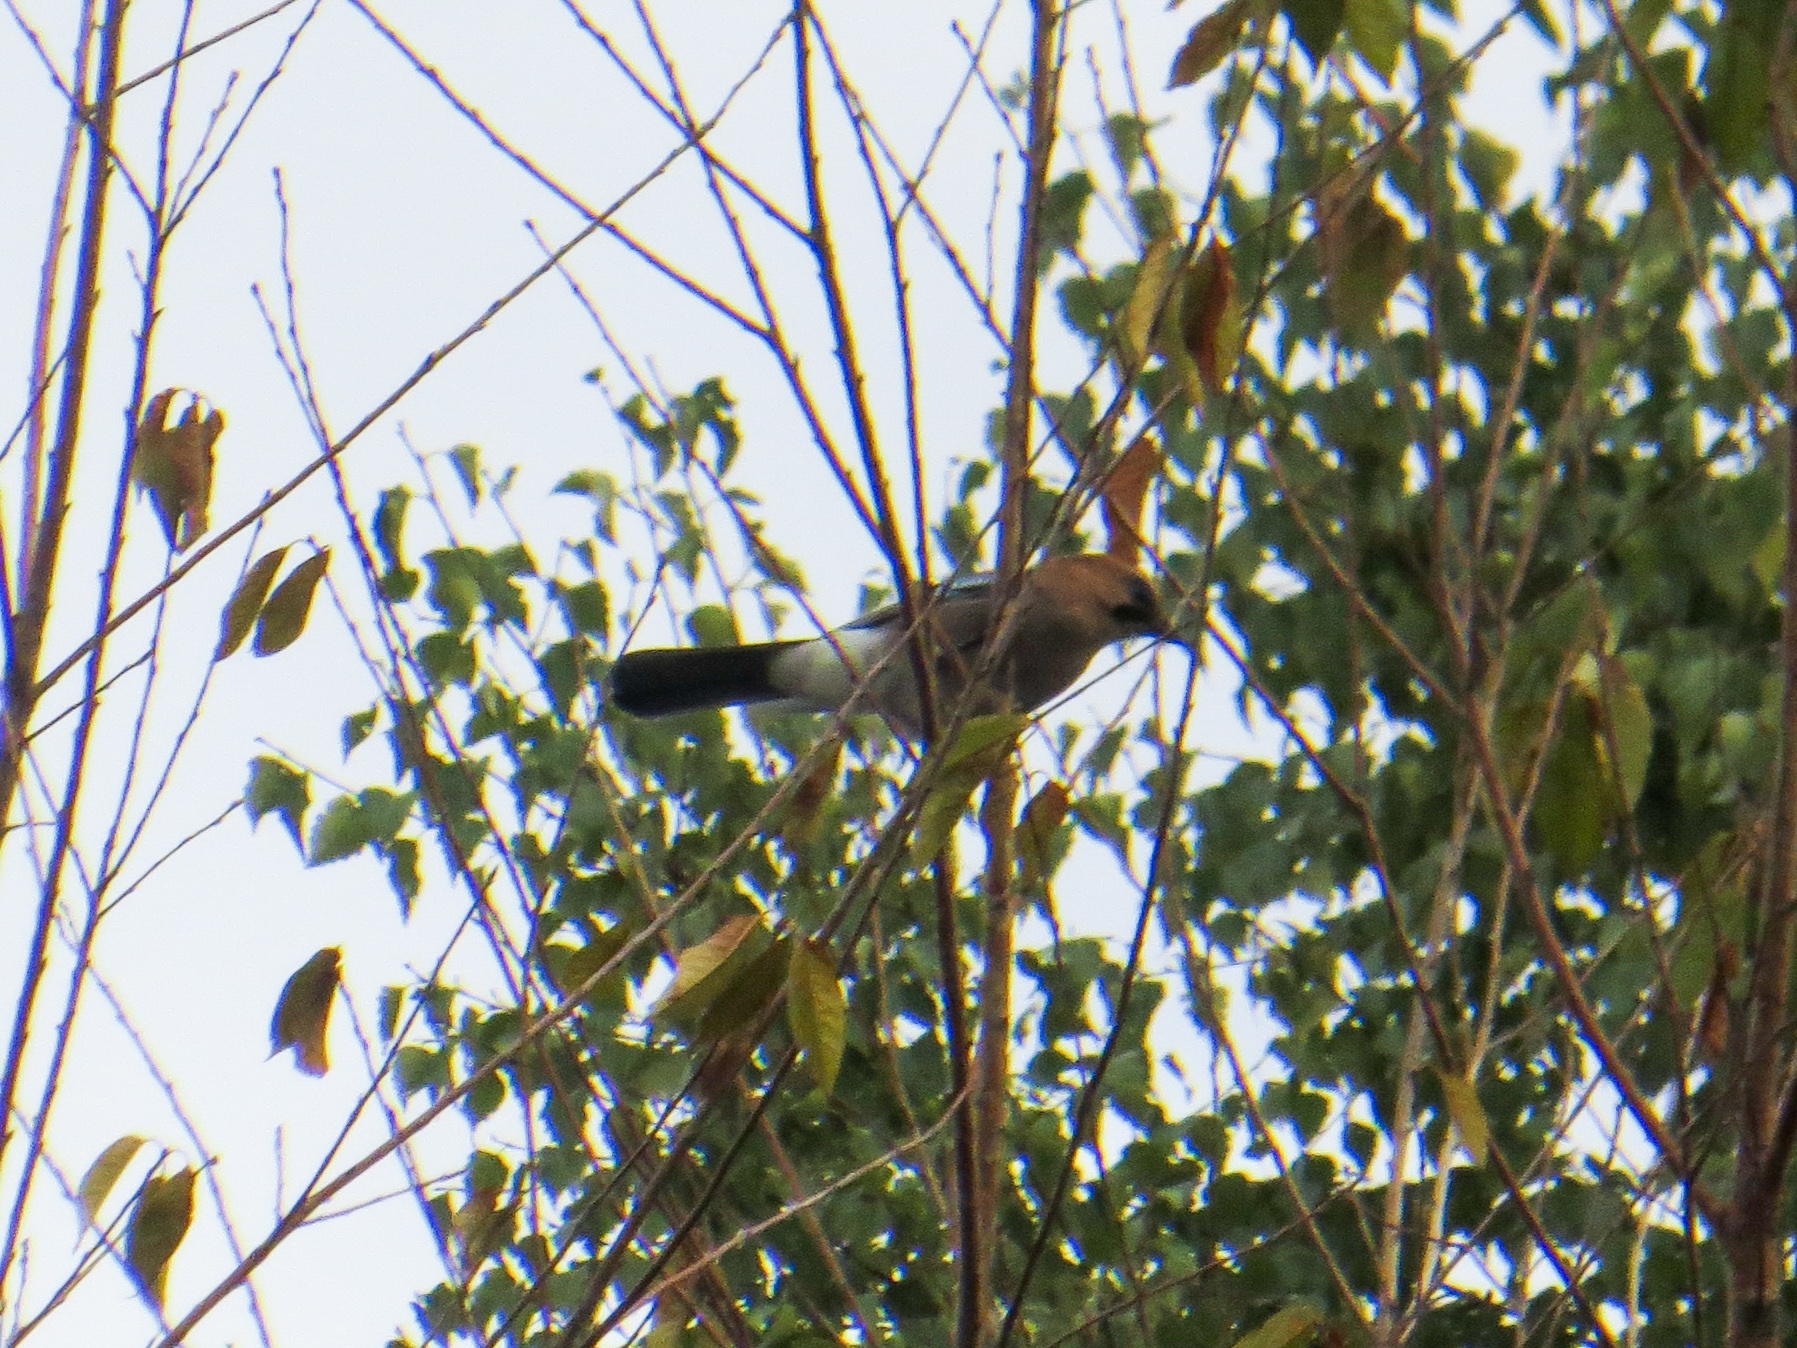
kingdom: Animalia
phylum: Chordata
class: Aves
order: Passeriformes
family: Corvidae
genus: Garrulus
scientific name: Garrulus glandarius
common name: Eurasian jay
